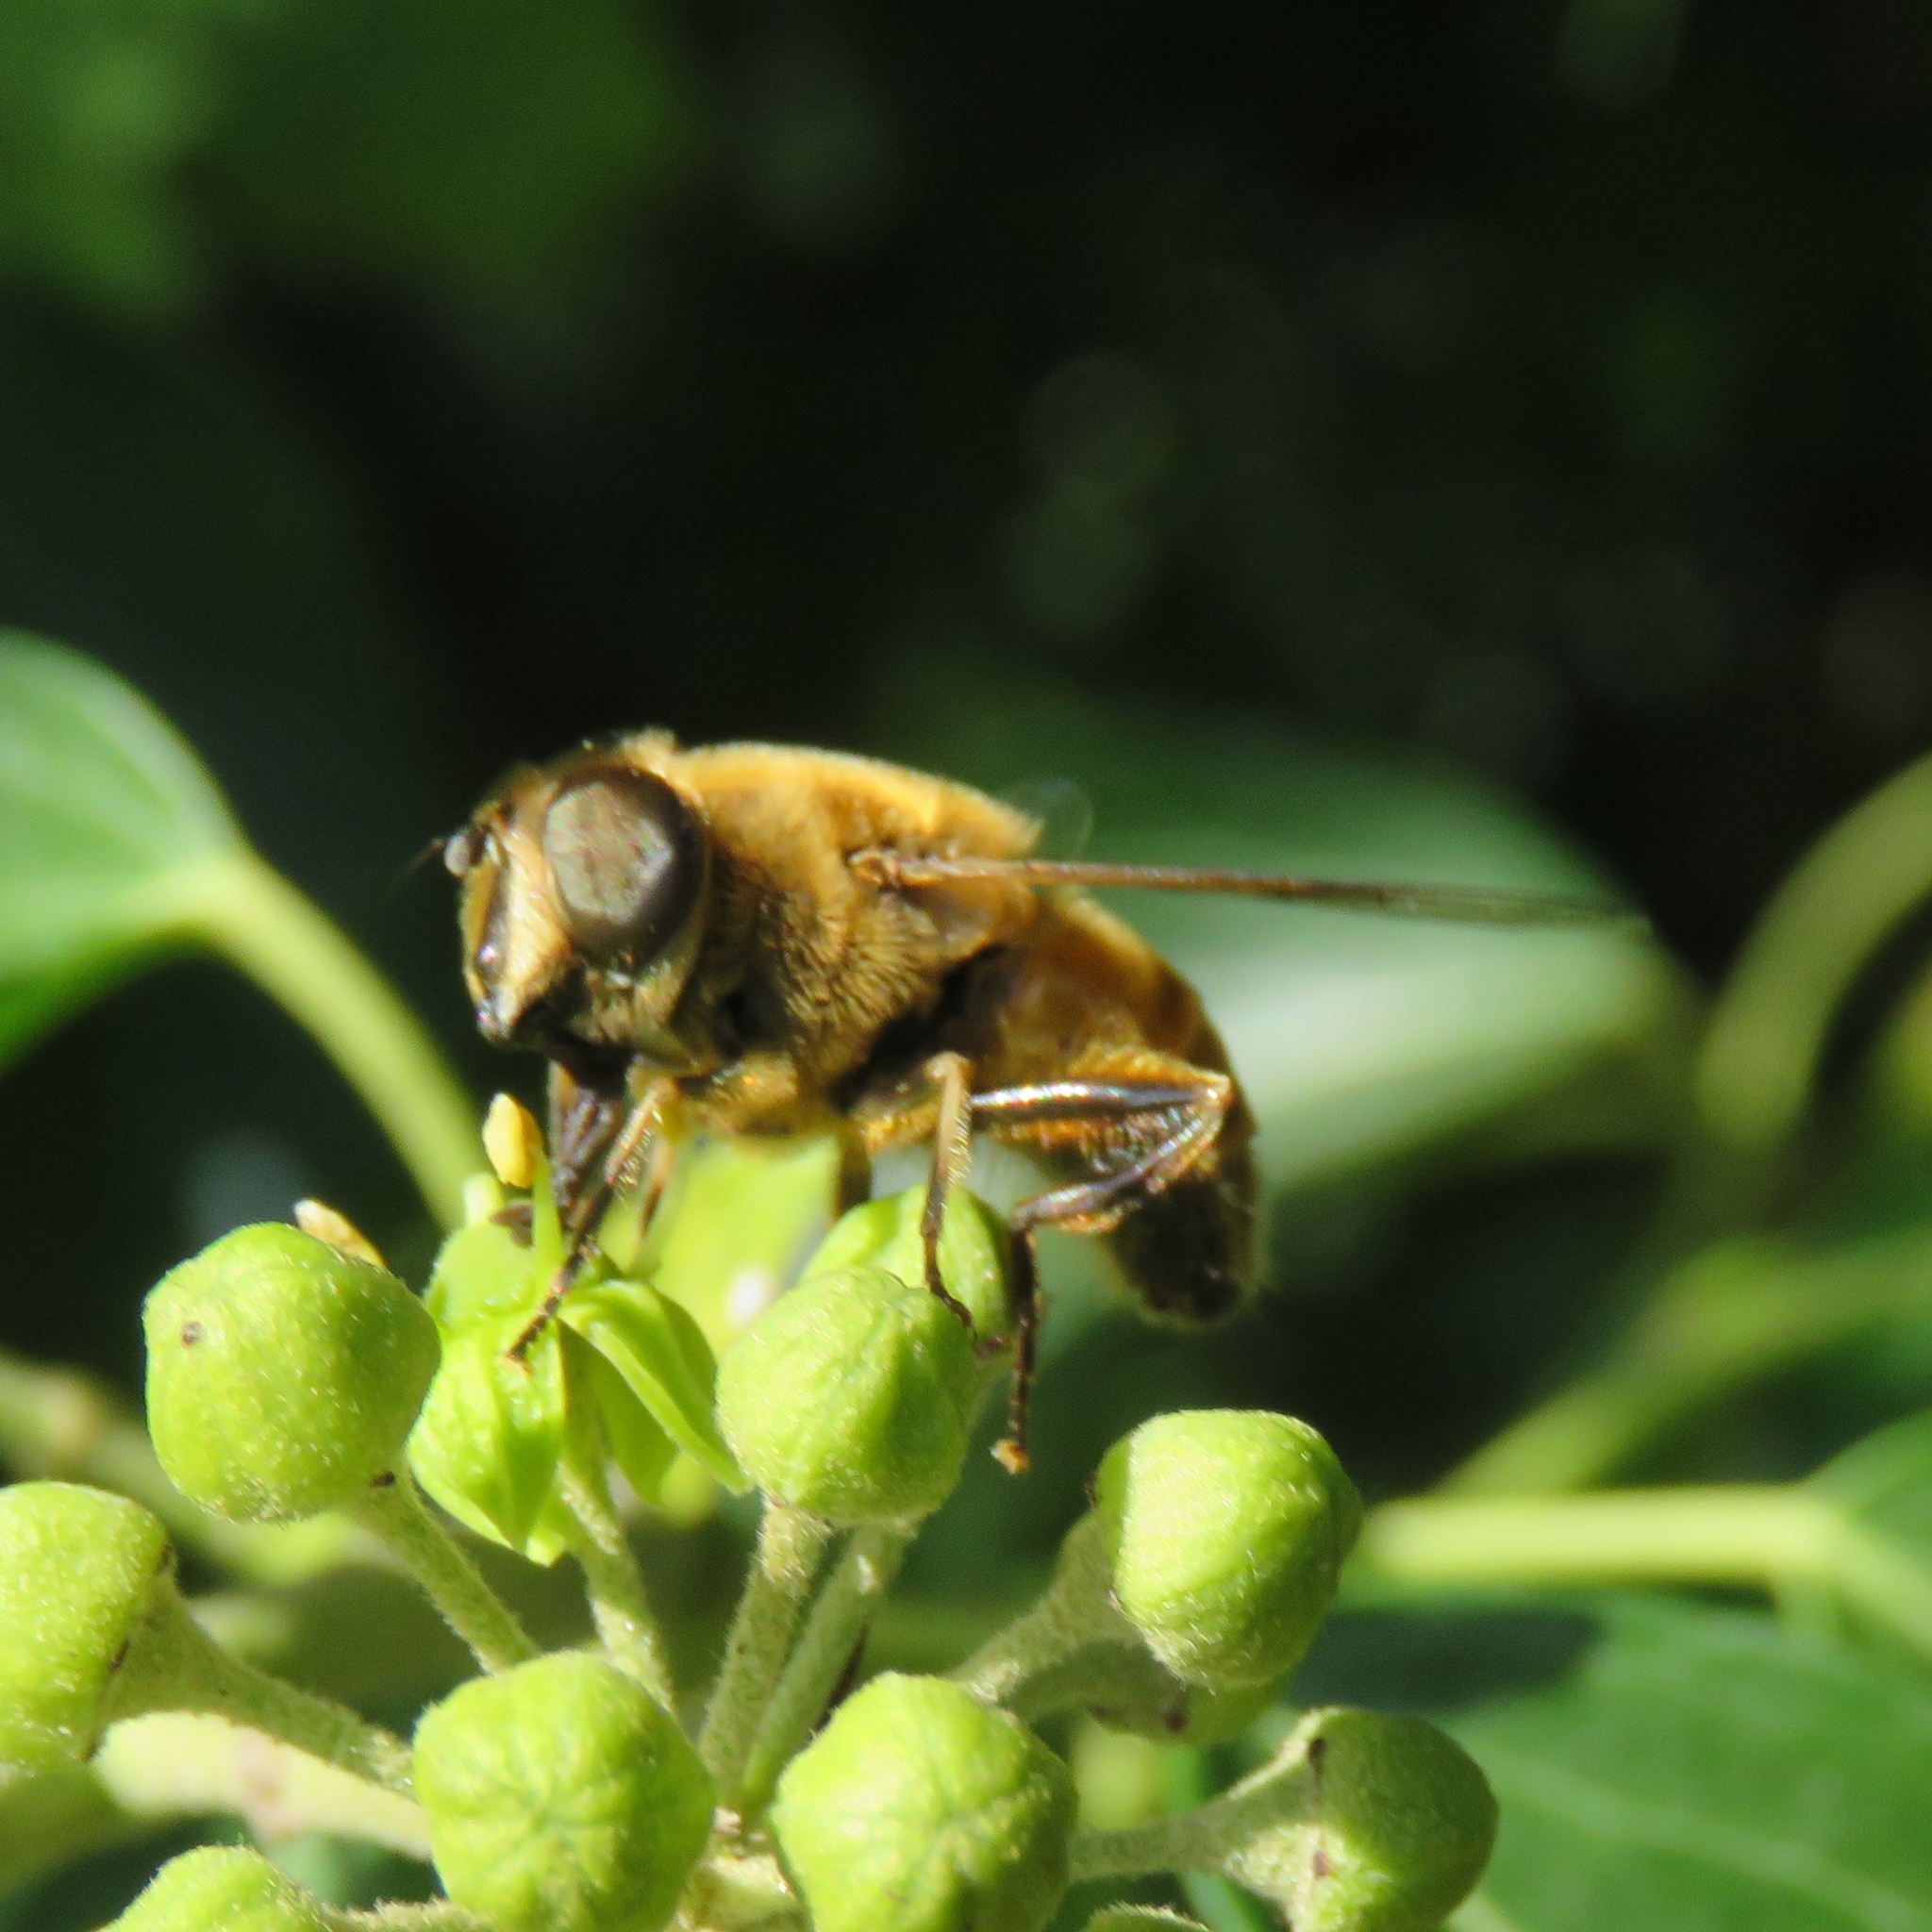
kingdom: Animalia
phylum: Arthropoda
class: Insecta
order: Diptera
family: Syrphidae
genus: Eristalis
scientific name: Eristalis tenax
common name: Drone fly
